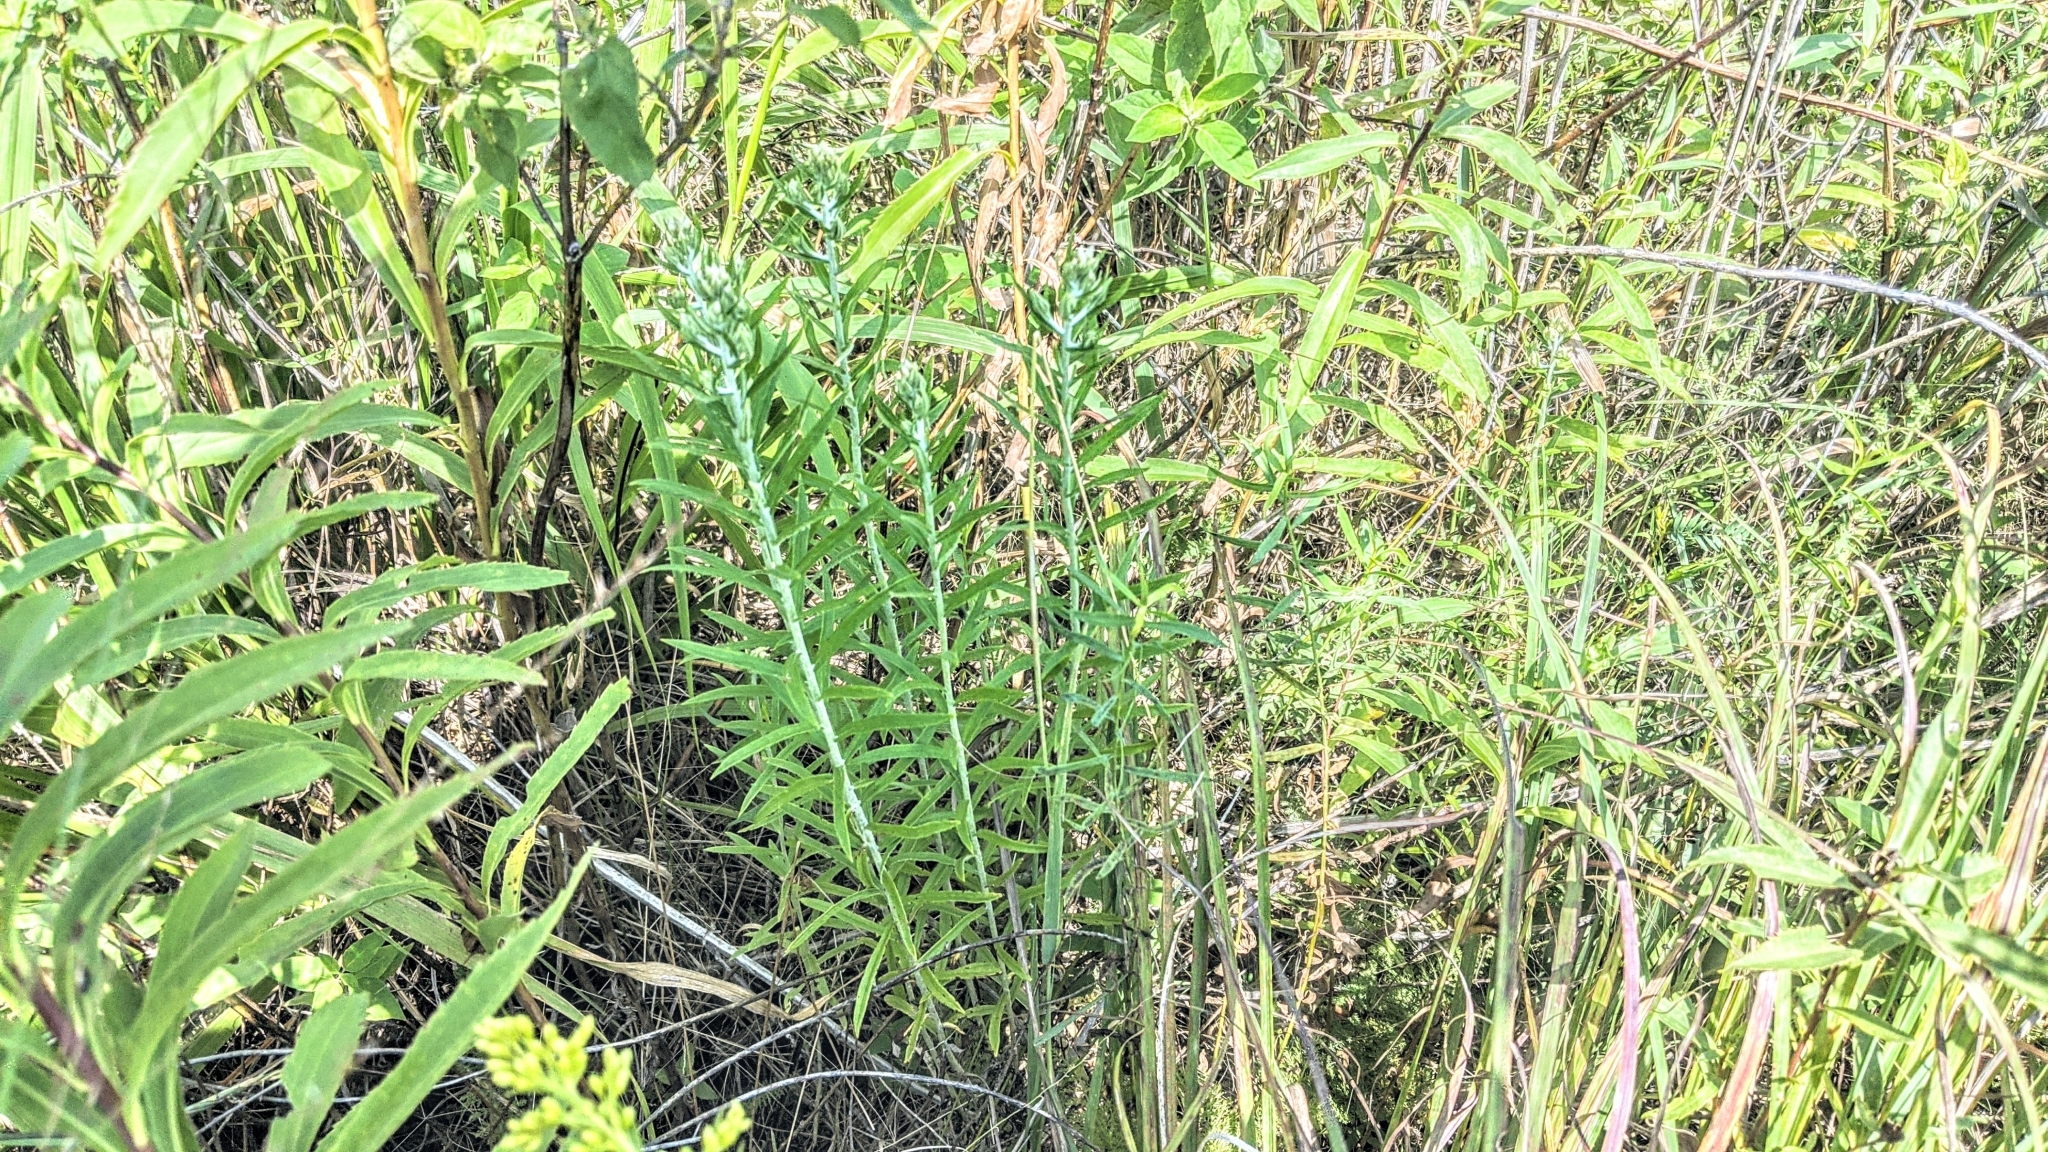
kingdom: Plantae
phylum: Tracheophyta
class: Magnoliopsida
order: Asterales
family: Asteraceae
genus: Pseudognaphalium
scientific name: Pseudognaphalium obtusifolium
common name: Eastern rabbit-tobacco
